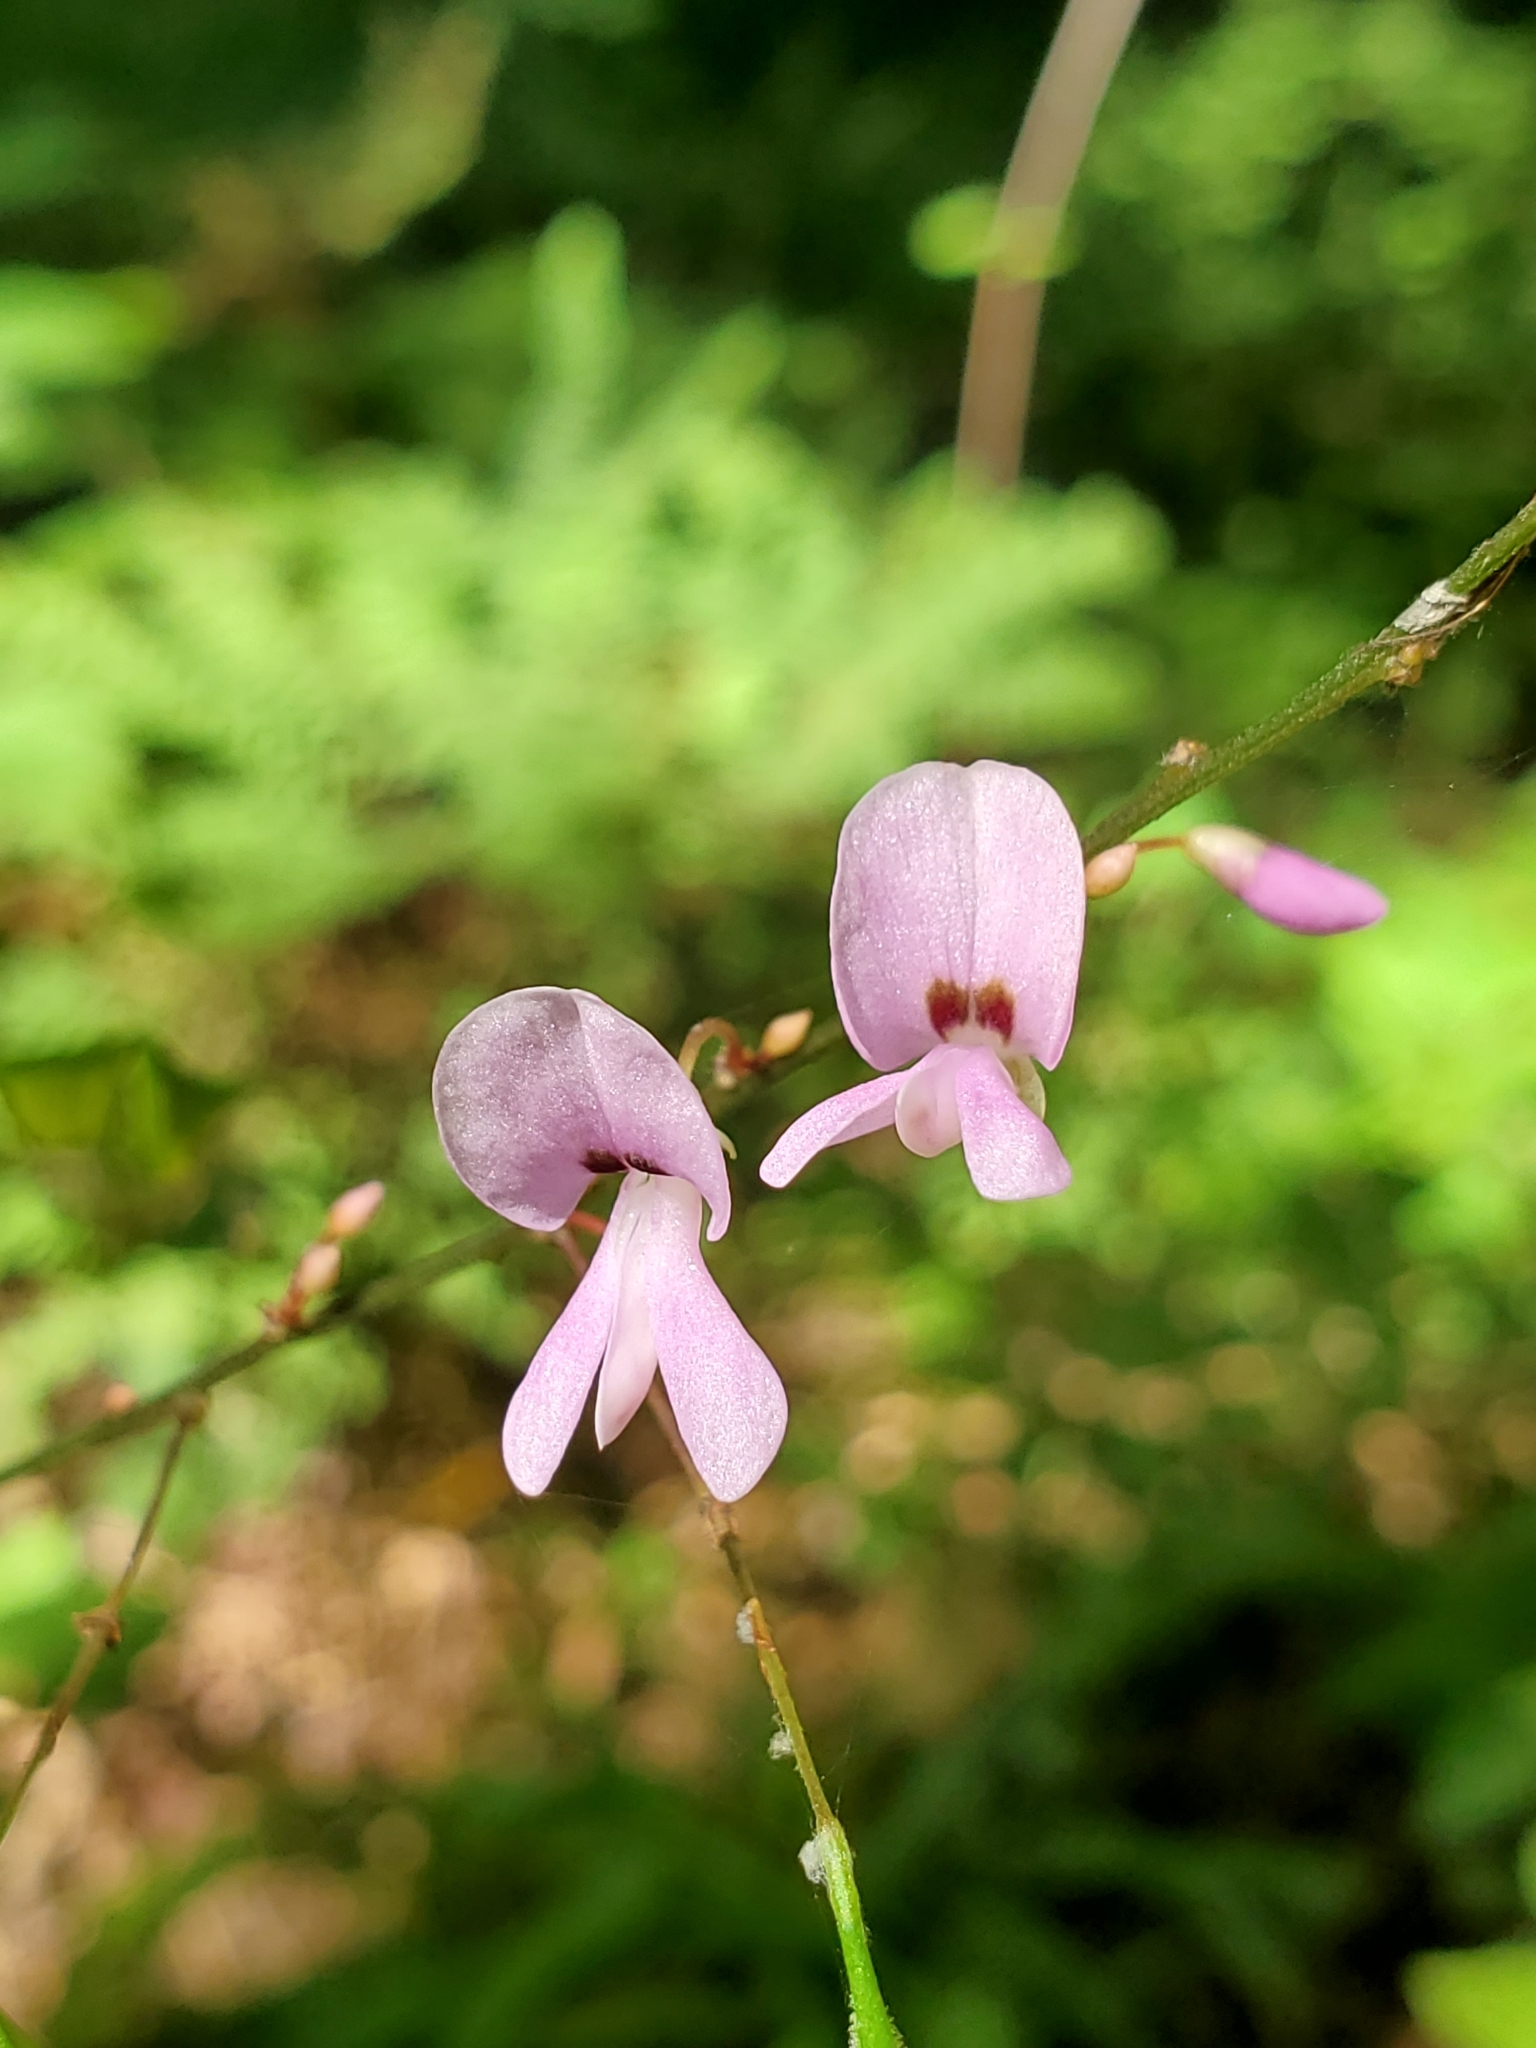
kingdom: Plantae
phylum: Tracheophyta
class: Magnoliopsida
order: Fabales
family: Fabaceae
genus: Hylodesmum
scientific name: Hylodesmum nudiflorum
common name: Bare-stemmed tick-trefoil
